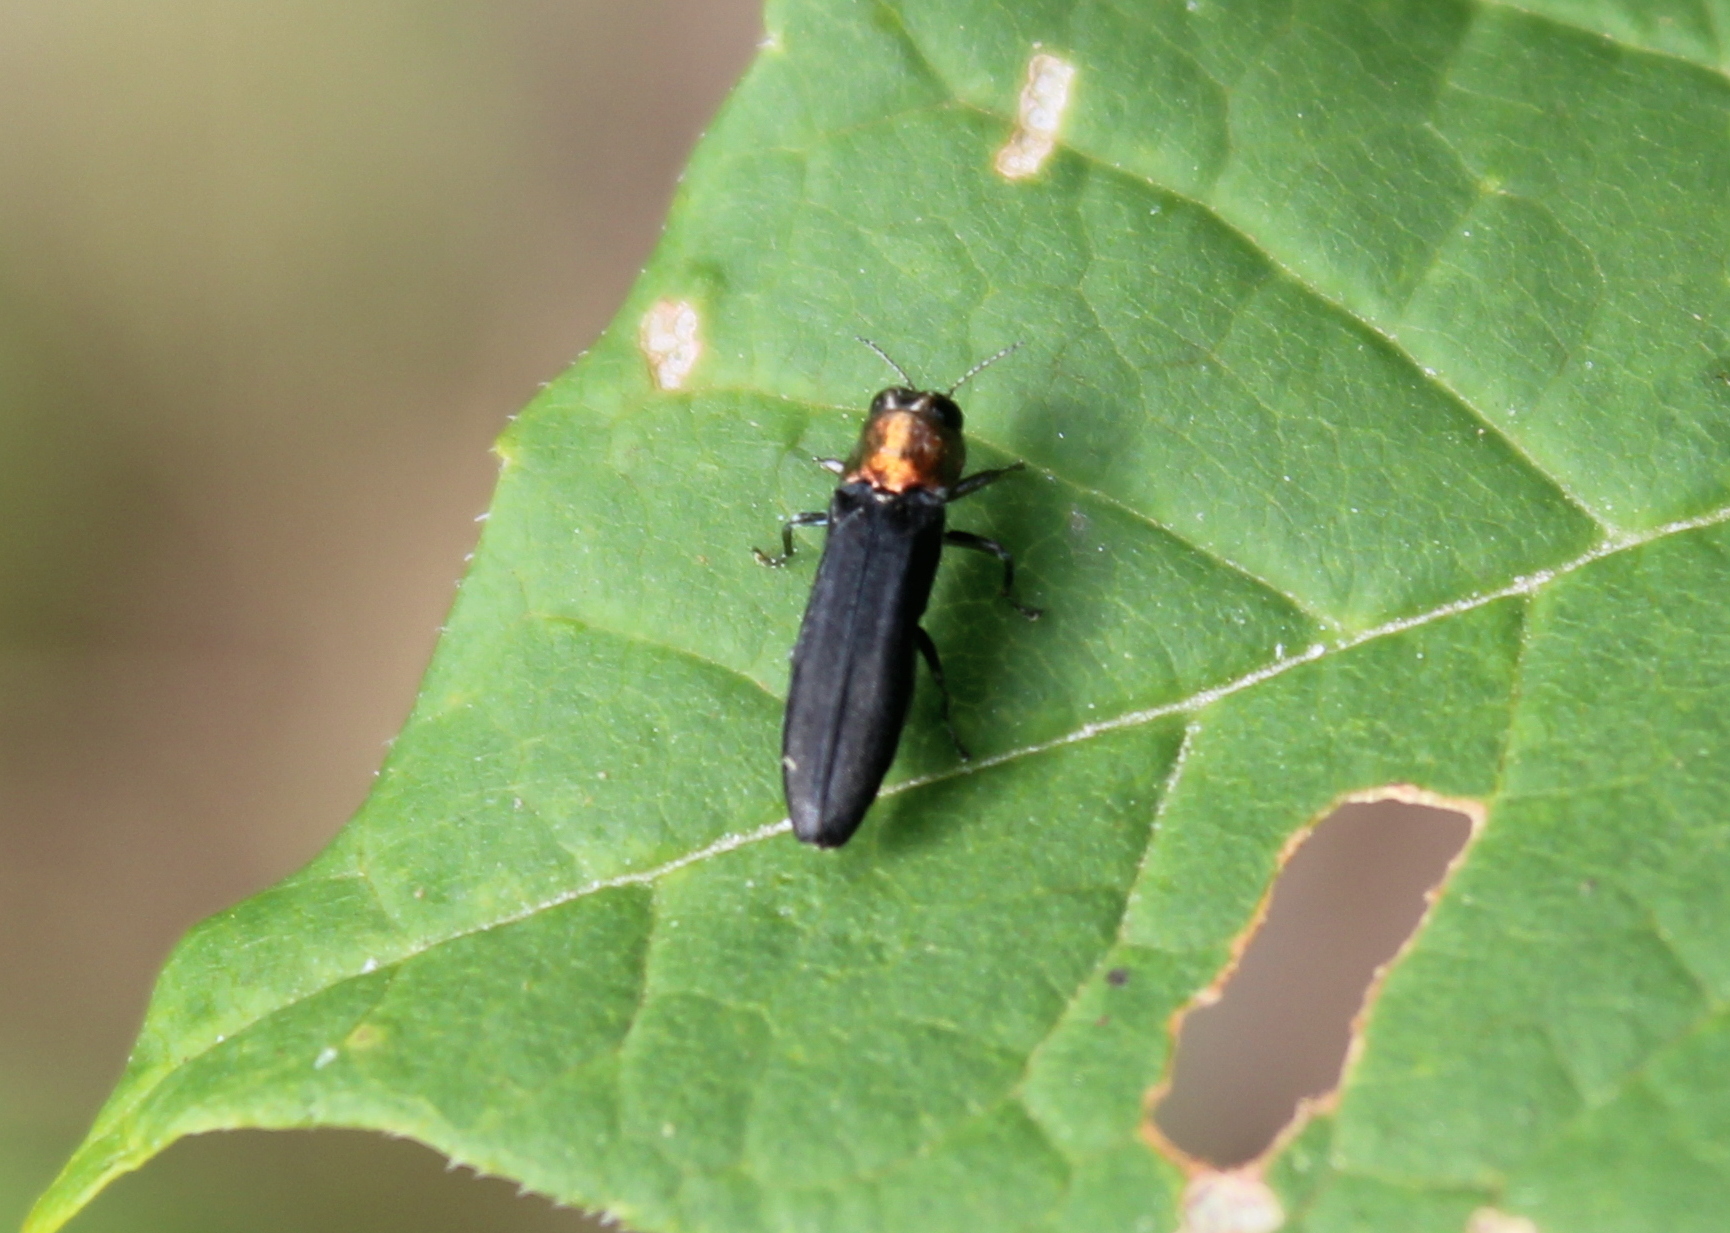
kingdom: Animalia
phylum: Arthropoda
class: Insecta
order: Coleoptera
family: Buprestidae
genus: Agrilus
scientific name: Agrilus ruficollis
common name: Red-necked cane borer beetle
